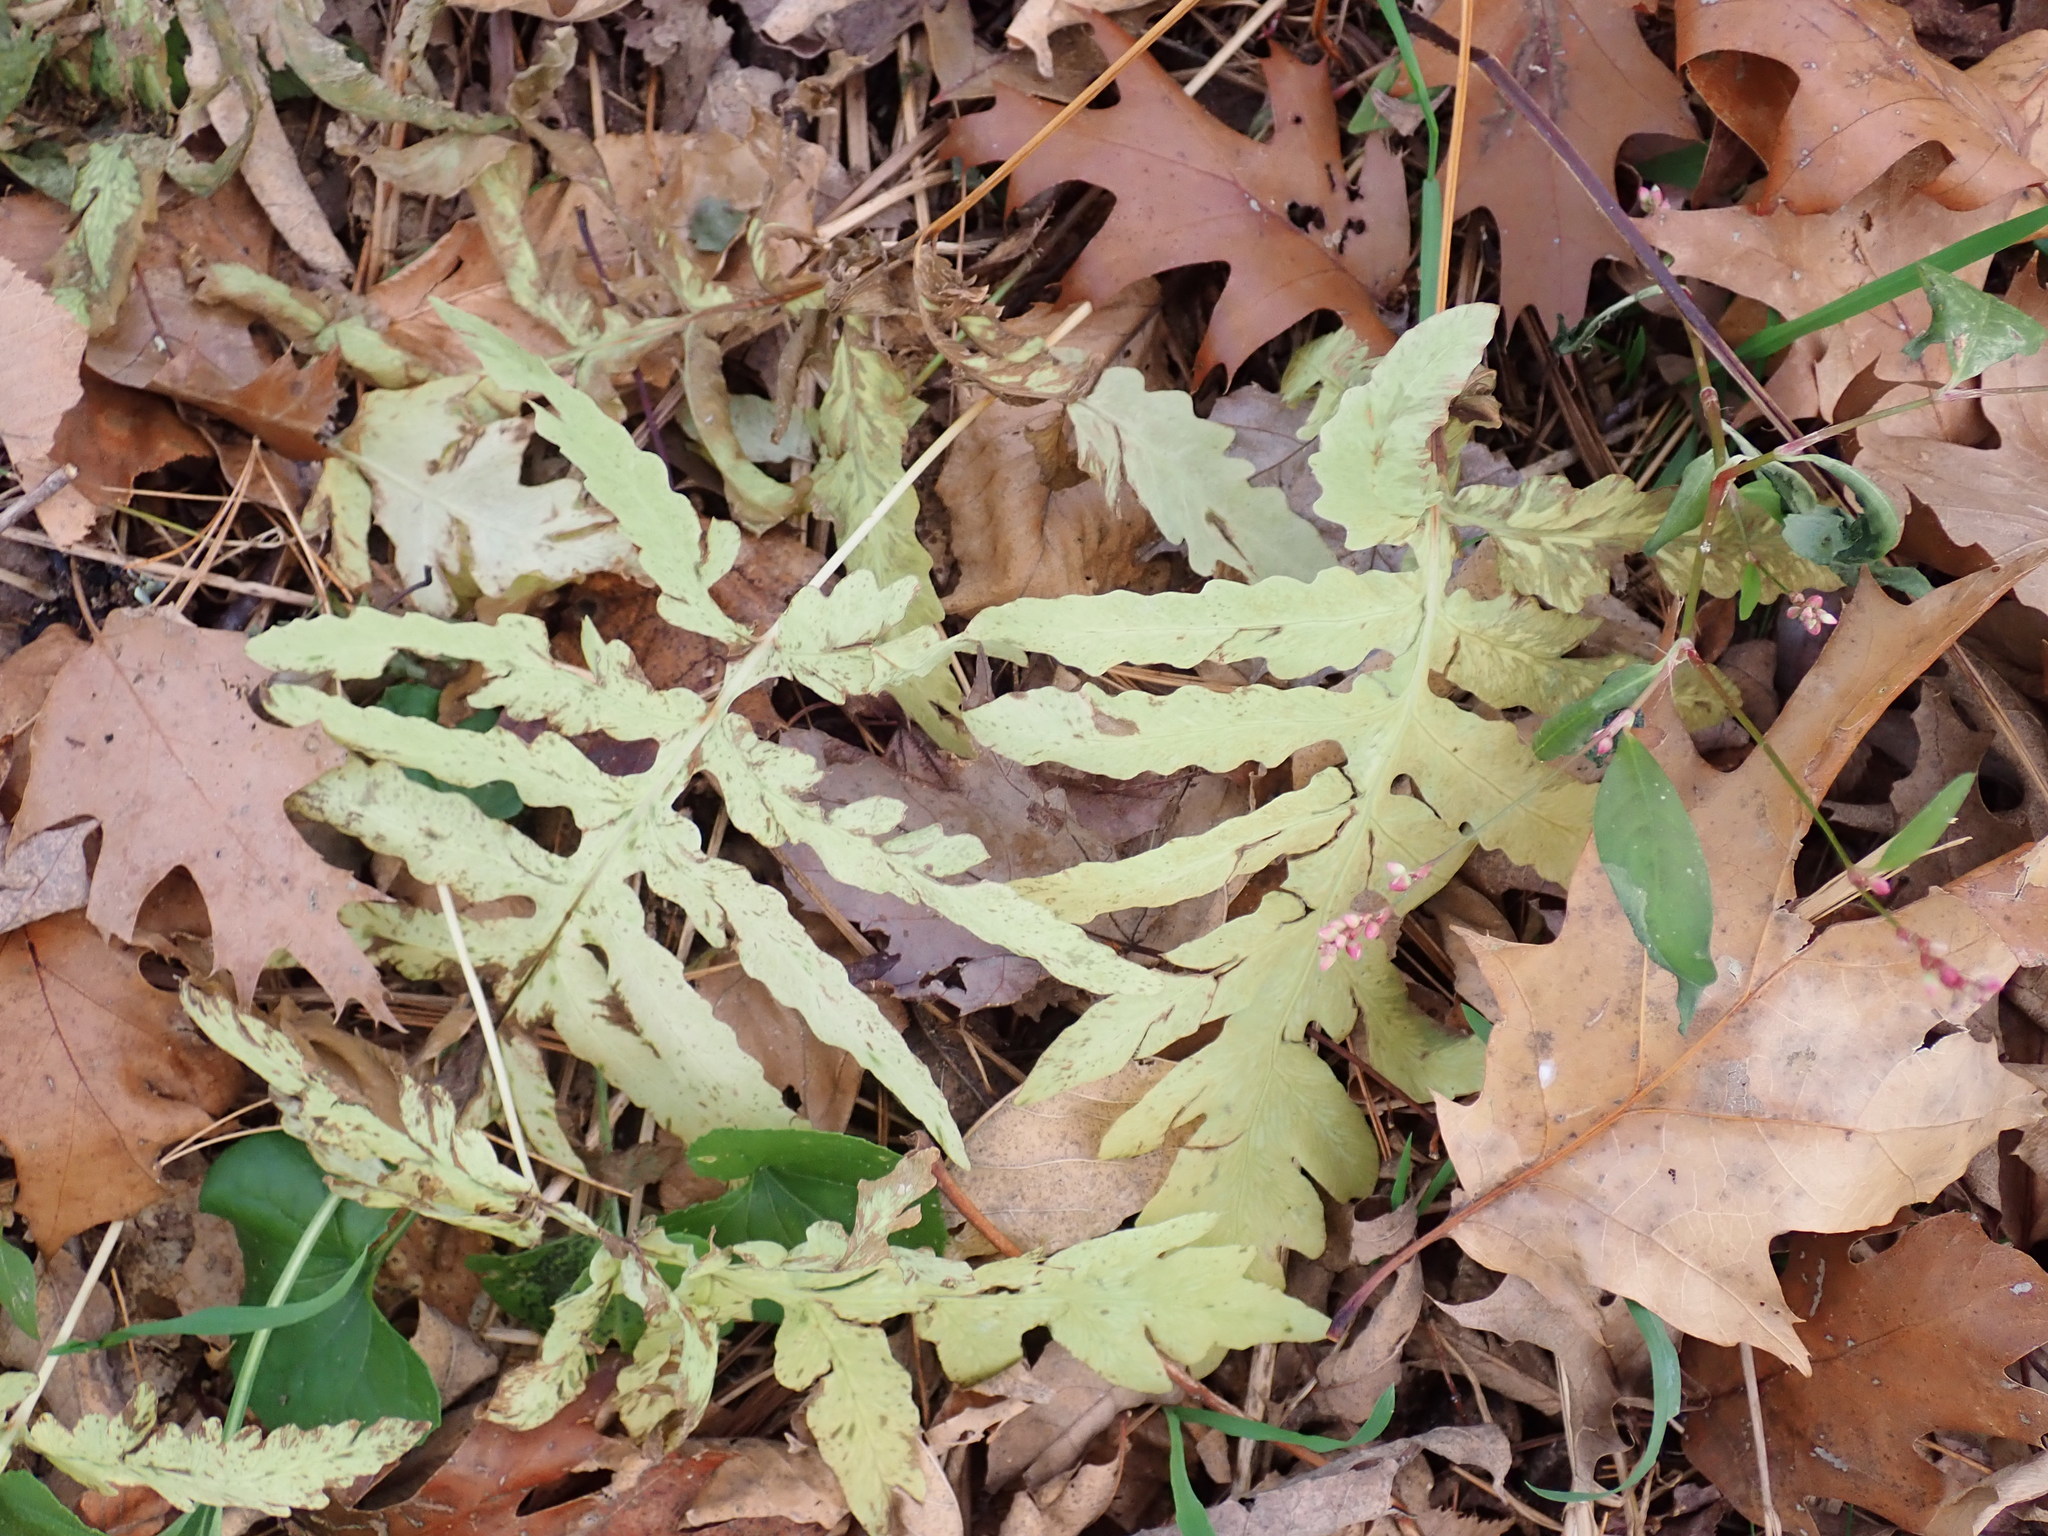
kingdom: Plantae
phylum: Tracheophyta
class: Polypodiopsida
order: Polypodiales
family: Onocleaceae
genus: Onoclea
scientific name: Onoclea sensibilis
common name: Sensitive fern
